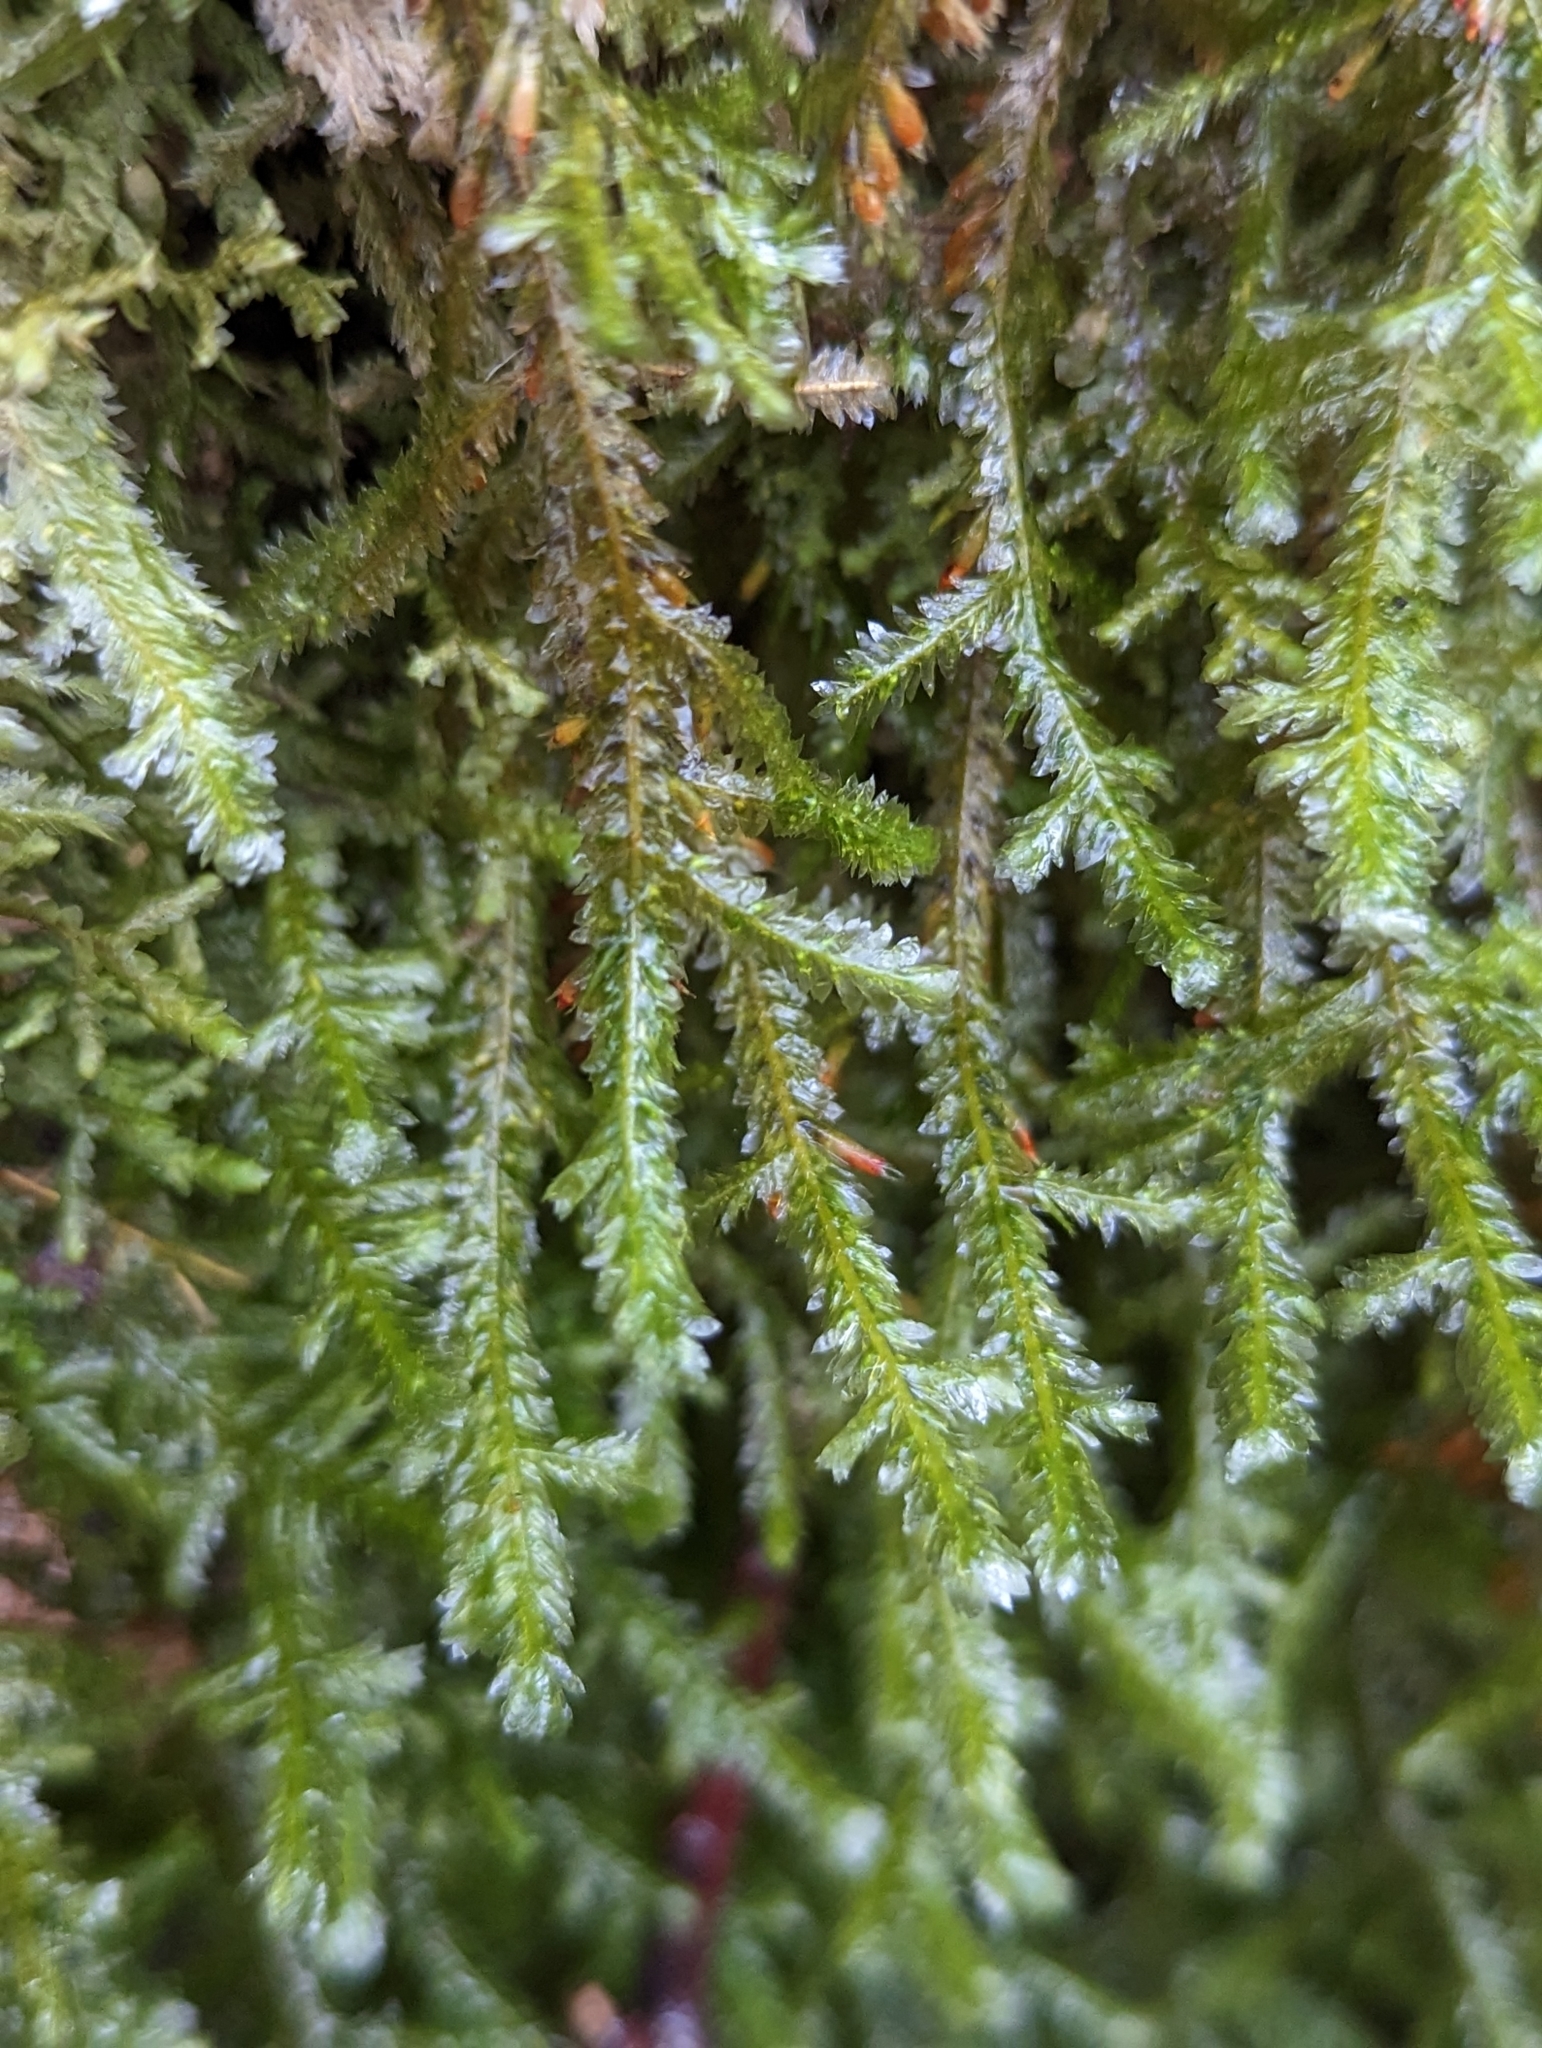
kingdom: Plantae
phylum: Bryophyta
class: Bryopsida
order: Hypnales
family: Neckeraceae
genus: Neckera
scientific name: Neckera pennata
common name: Feathery neckera
